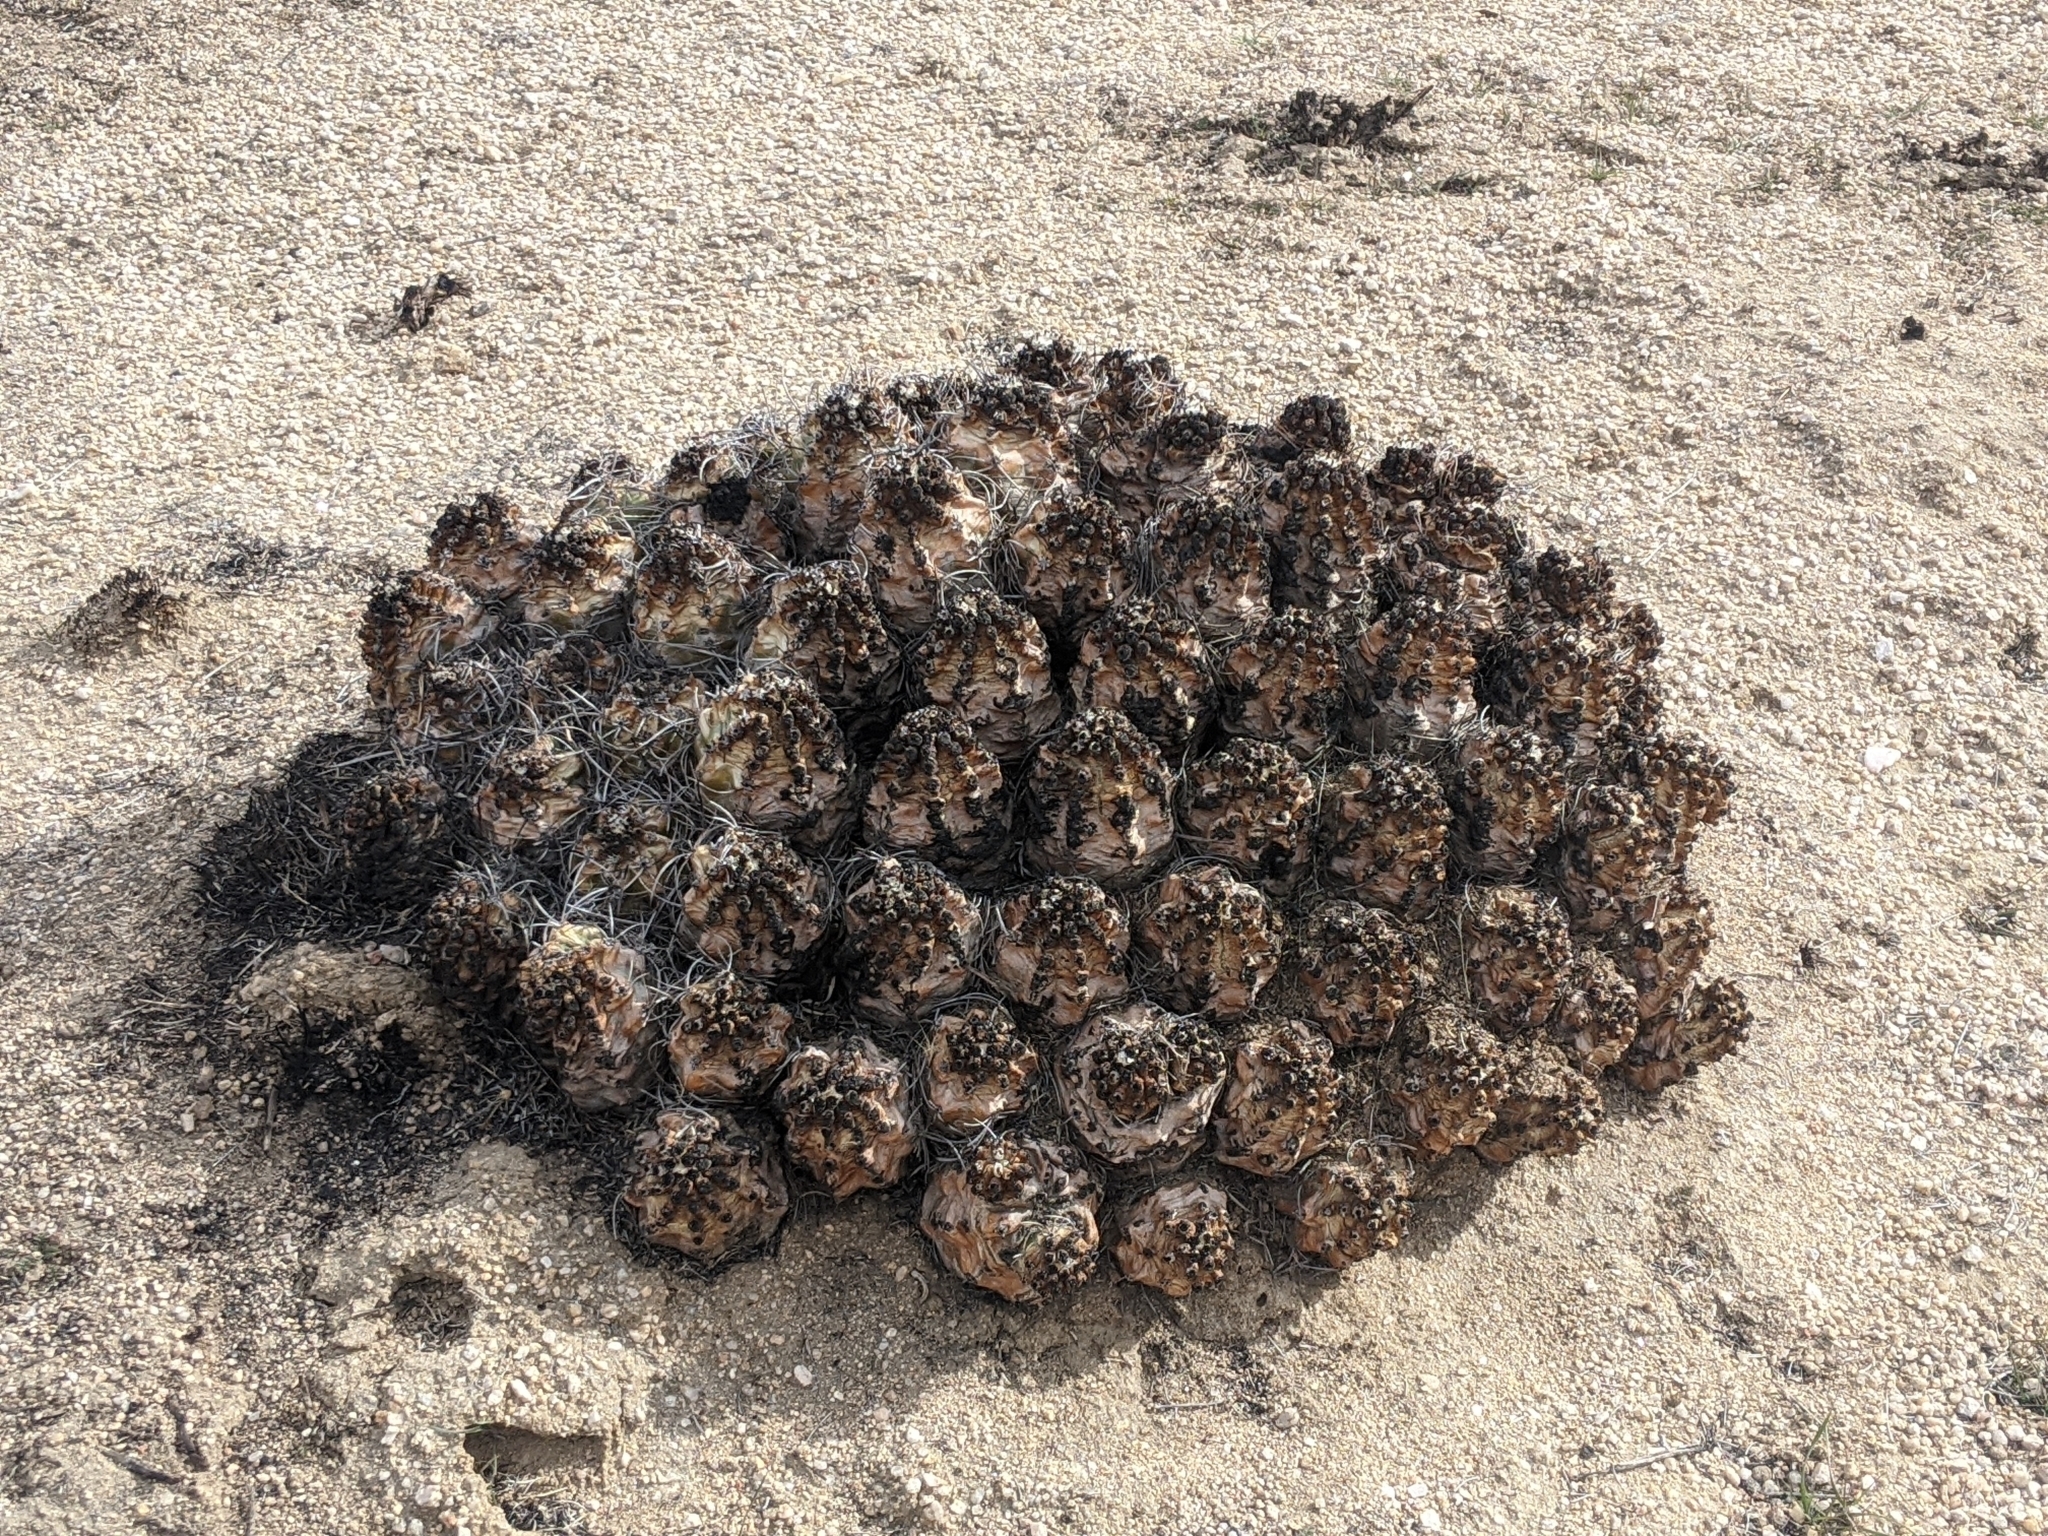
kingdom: Plantae
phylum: Tracheophyta
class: Magnoliopsida
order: Caryophyllales
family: Cactaceae
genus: Echinocereus
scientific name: Echinocereus triglochidiatus
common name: Claretcup hedgehog
